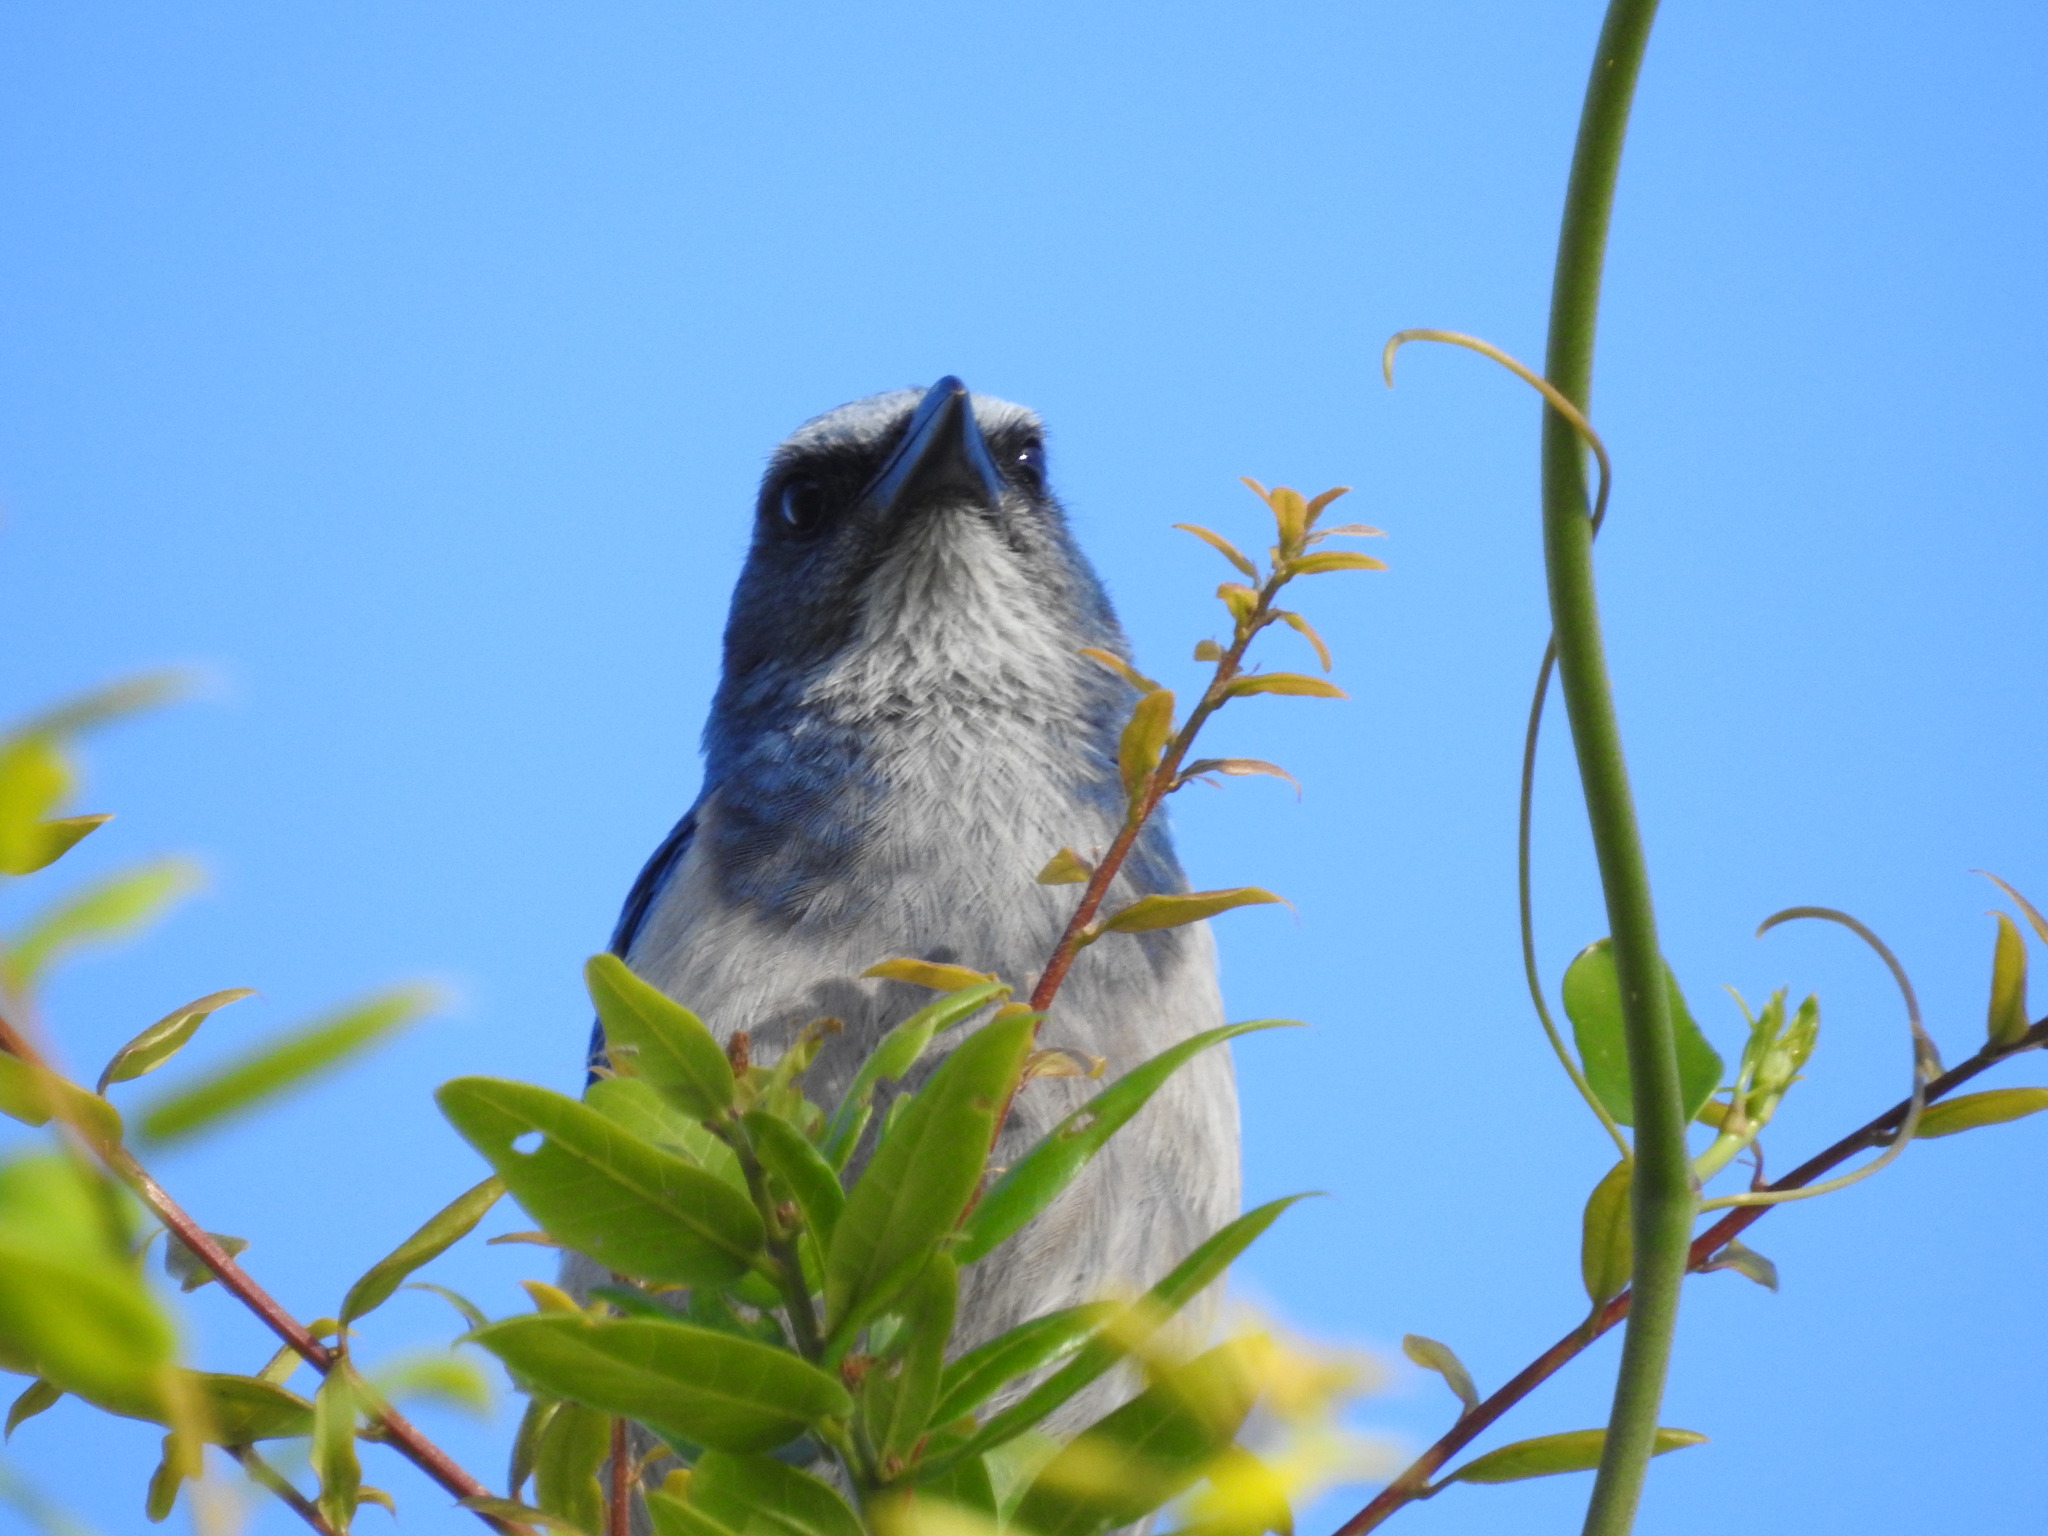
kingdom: Animalia
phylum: Chordata
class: Aves
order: Passeriformes
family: Corvidae
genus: Aphelocoma
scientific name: Aphelocoma coerulescens
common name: Florida scrub jay
